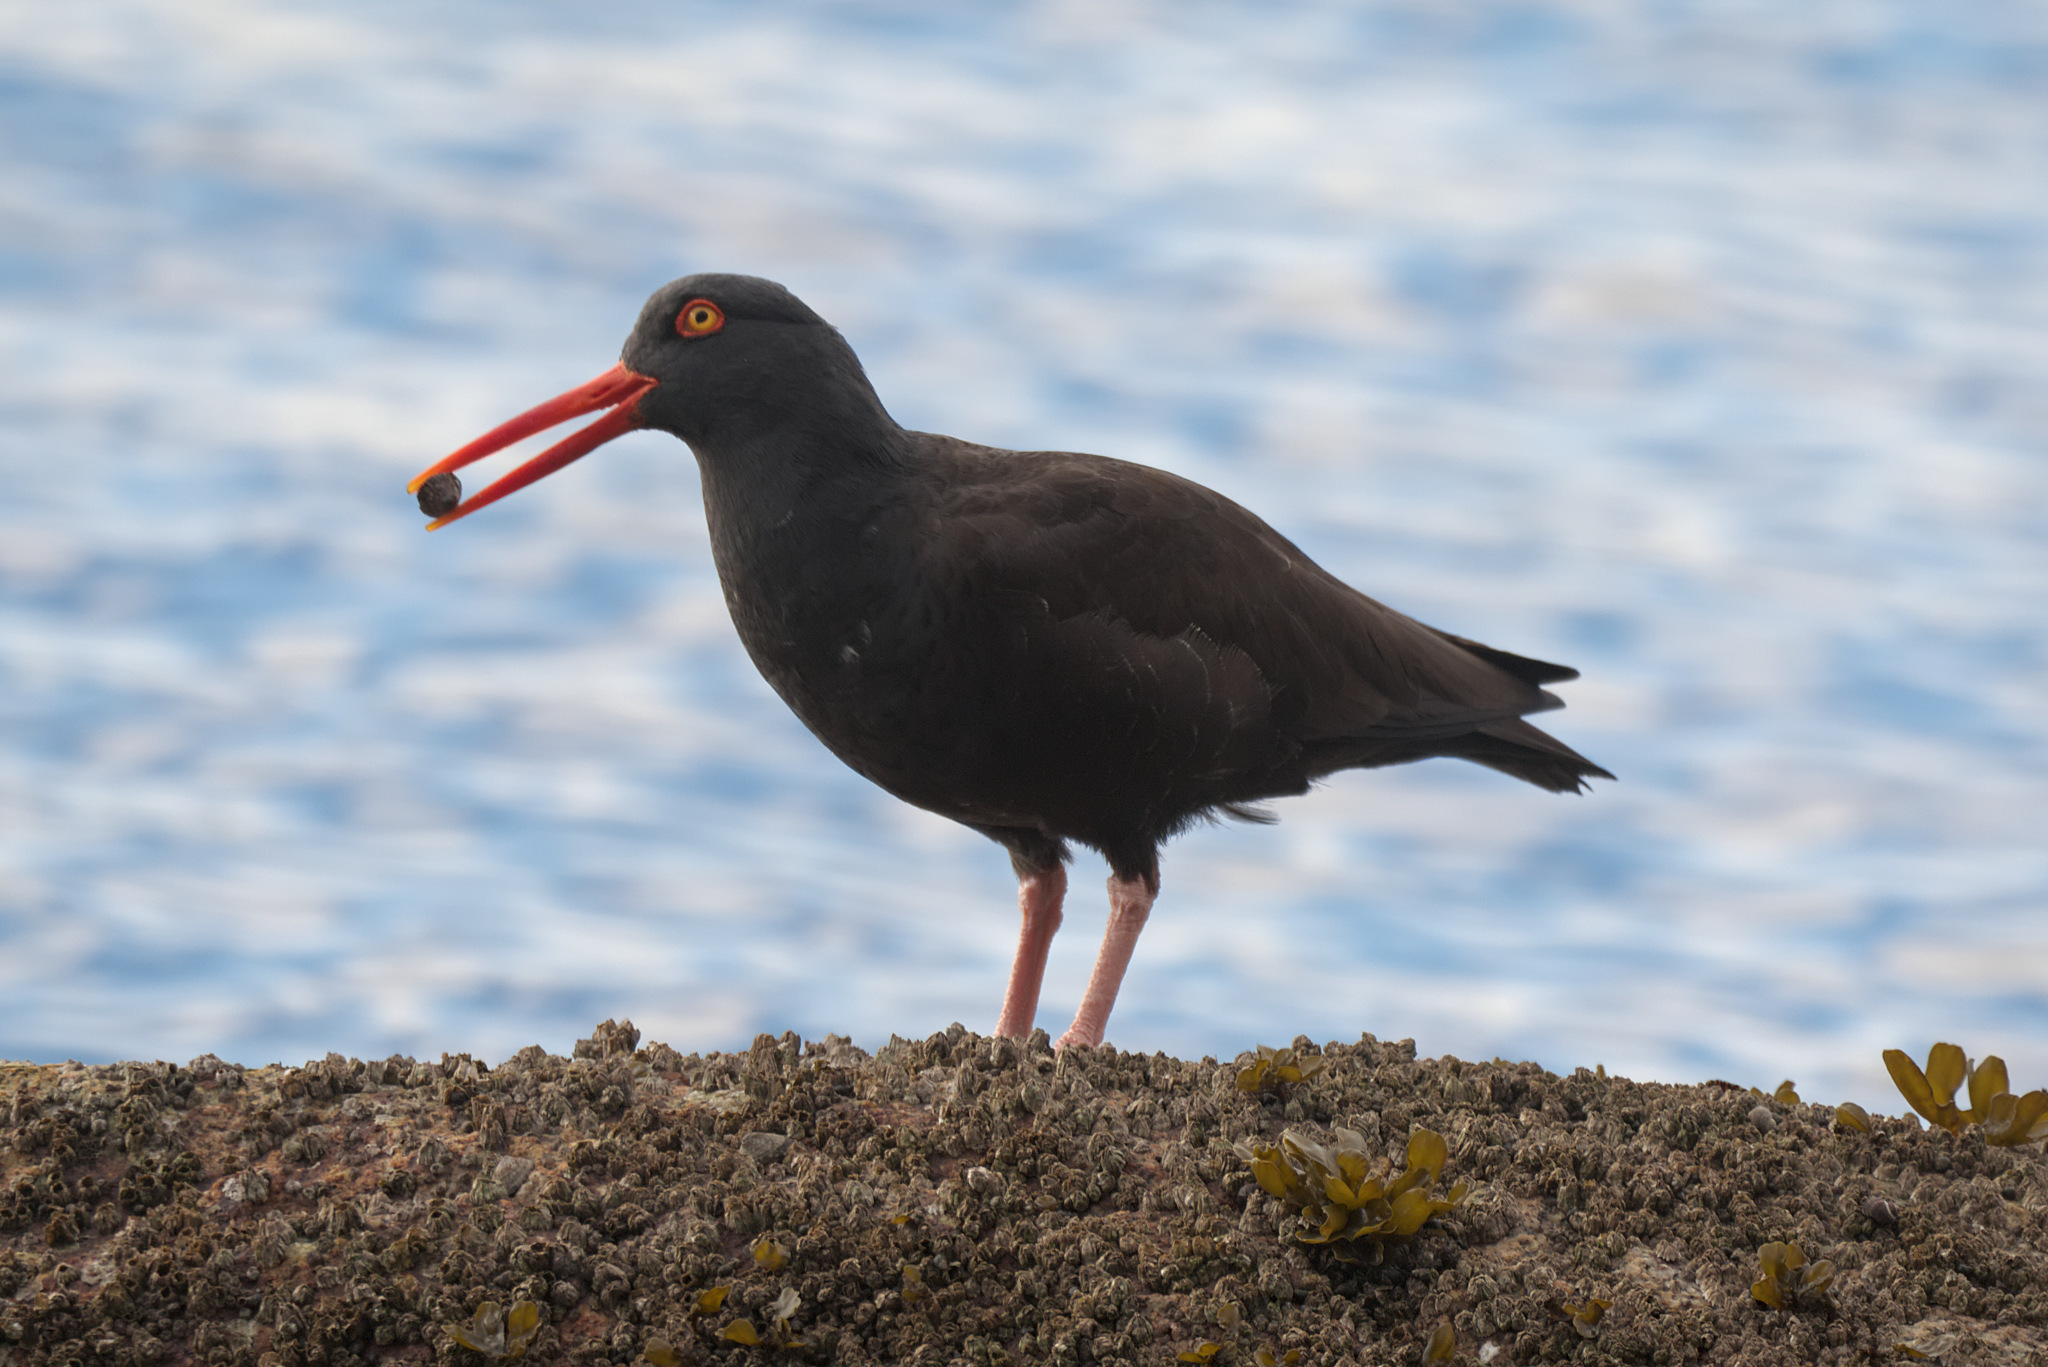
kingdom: Animalia
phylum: Chordata
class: Aves
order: Charadriiformes
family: Haematopodidae
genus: Haematopus
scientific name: Haematopus bachmani
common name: Black oystercatcher
